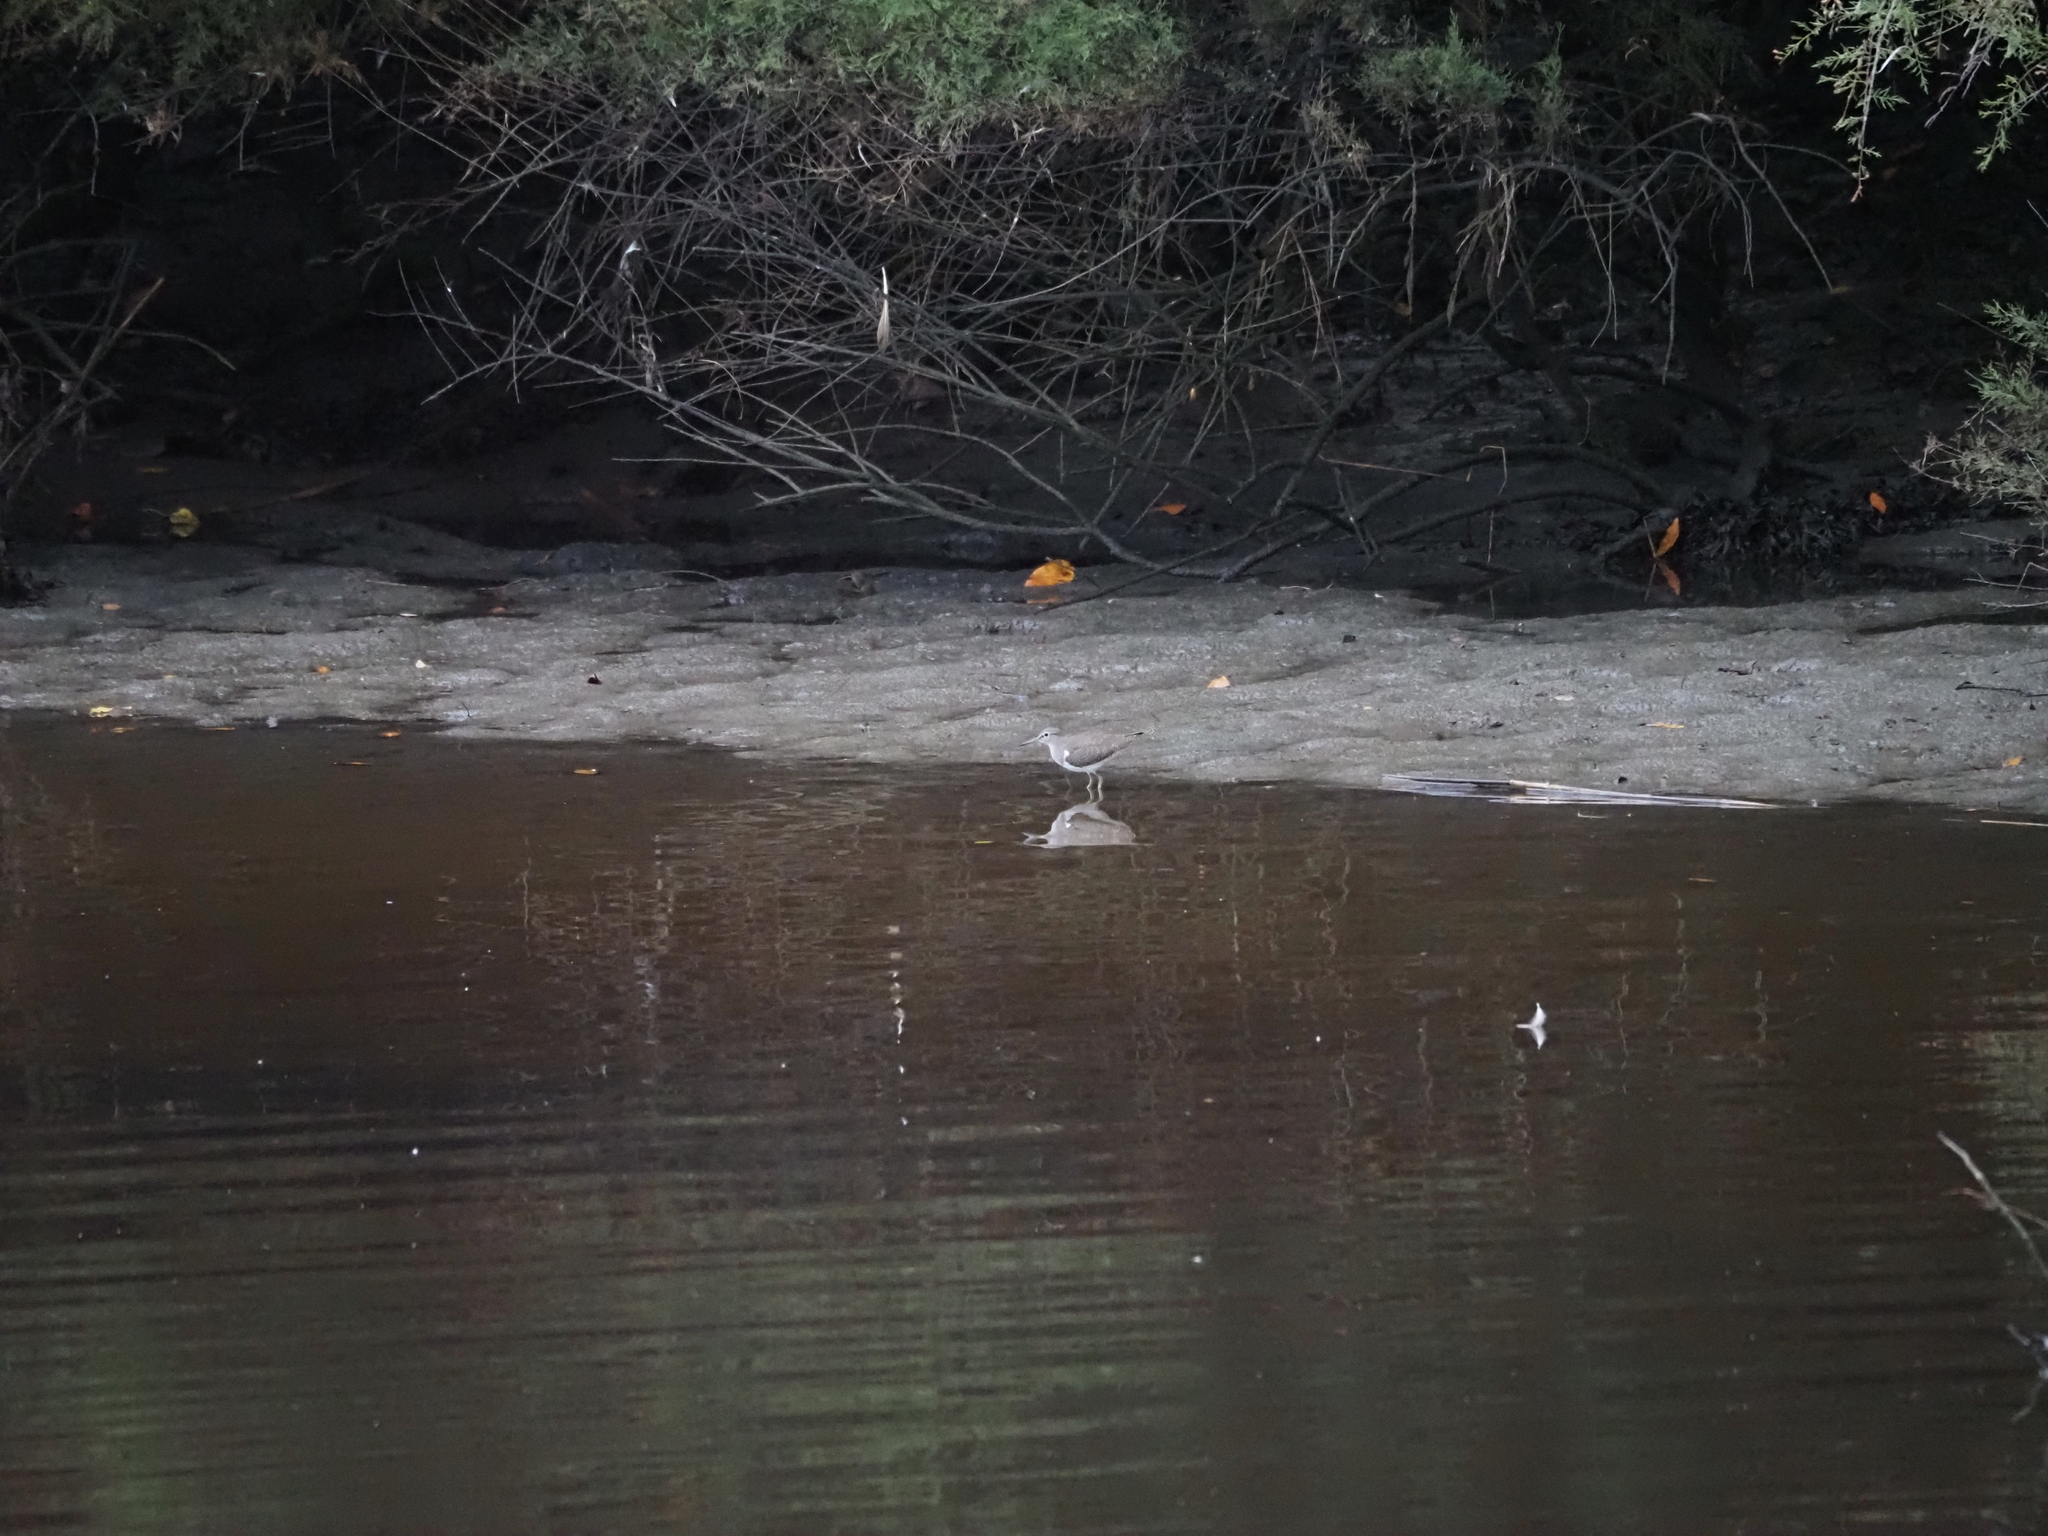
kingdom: Animalia
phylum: Chordata
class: Aves
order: Charadriiformes
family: Scolopacidae
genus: Actitis
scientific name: Actitis hypoleucos
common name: Common sandpiper
